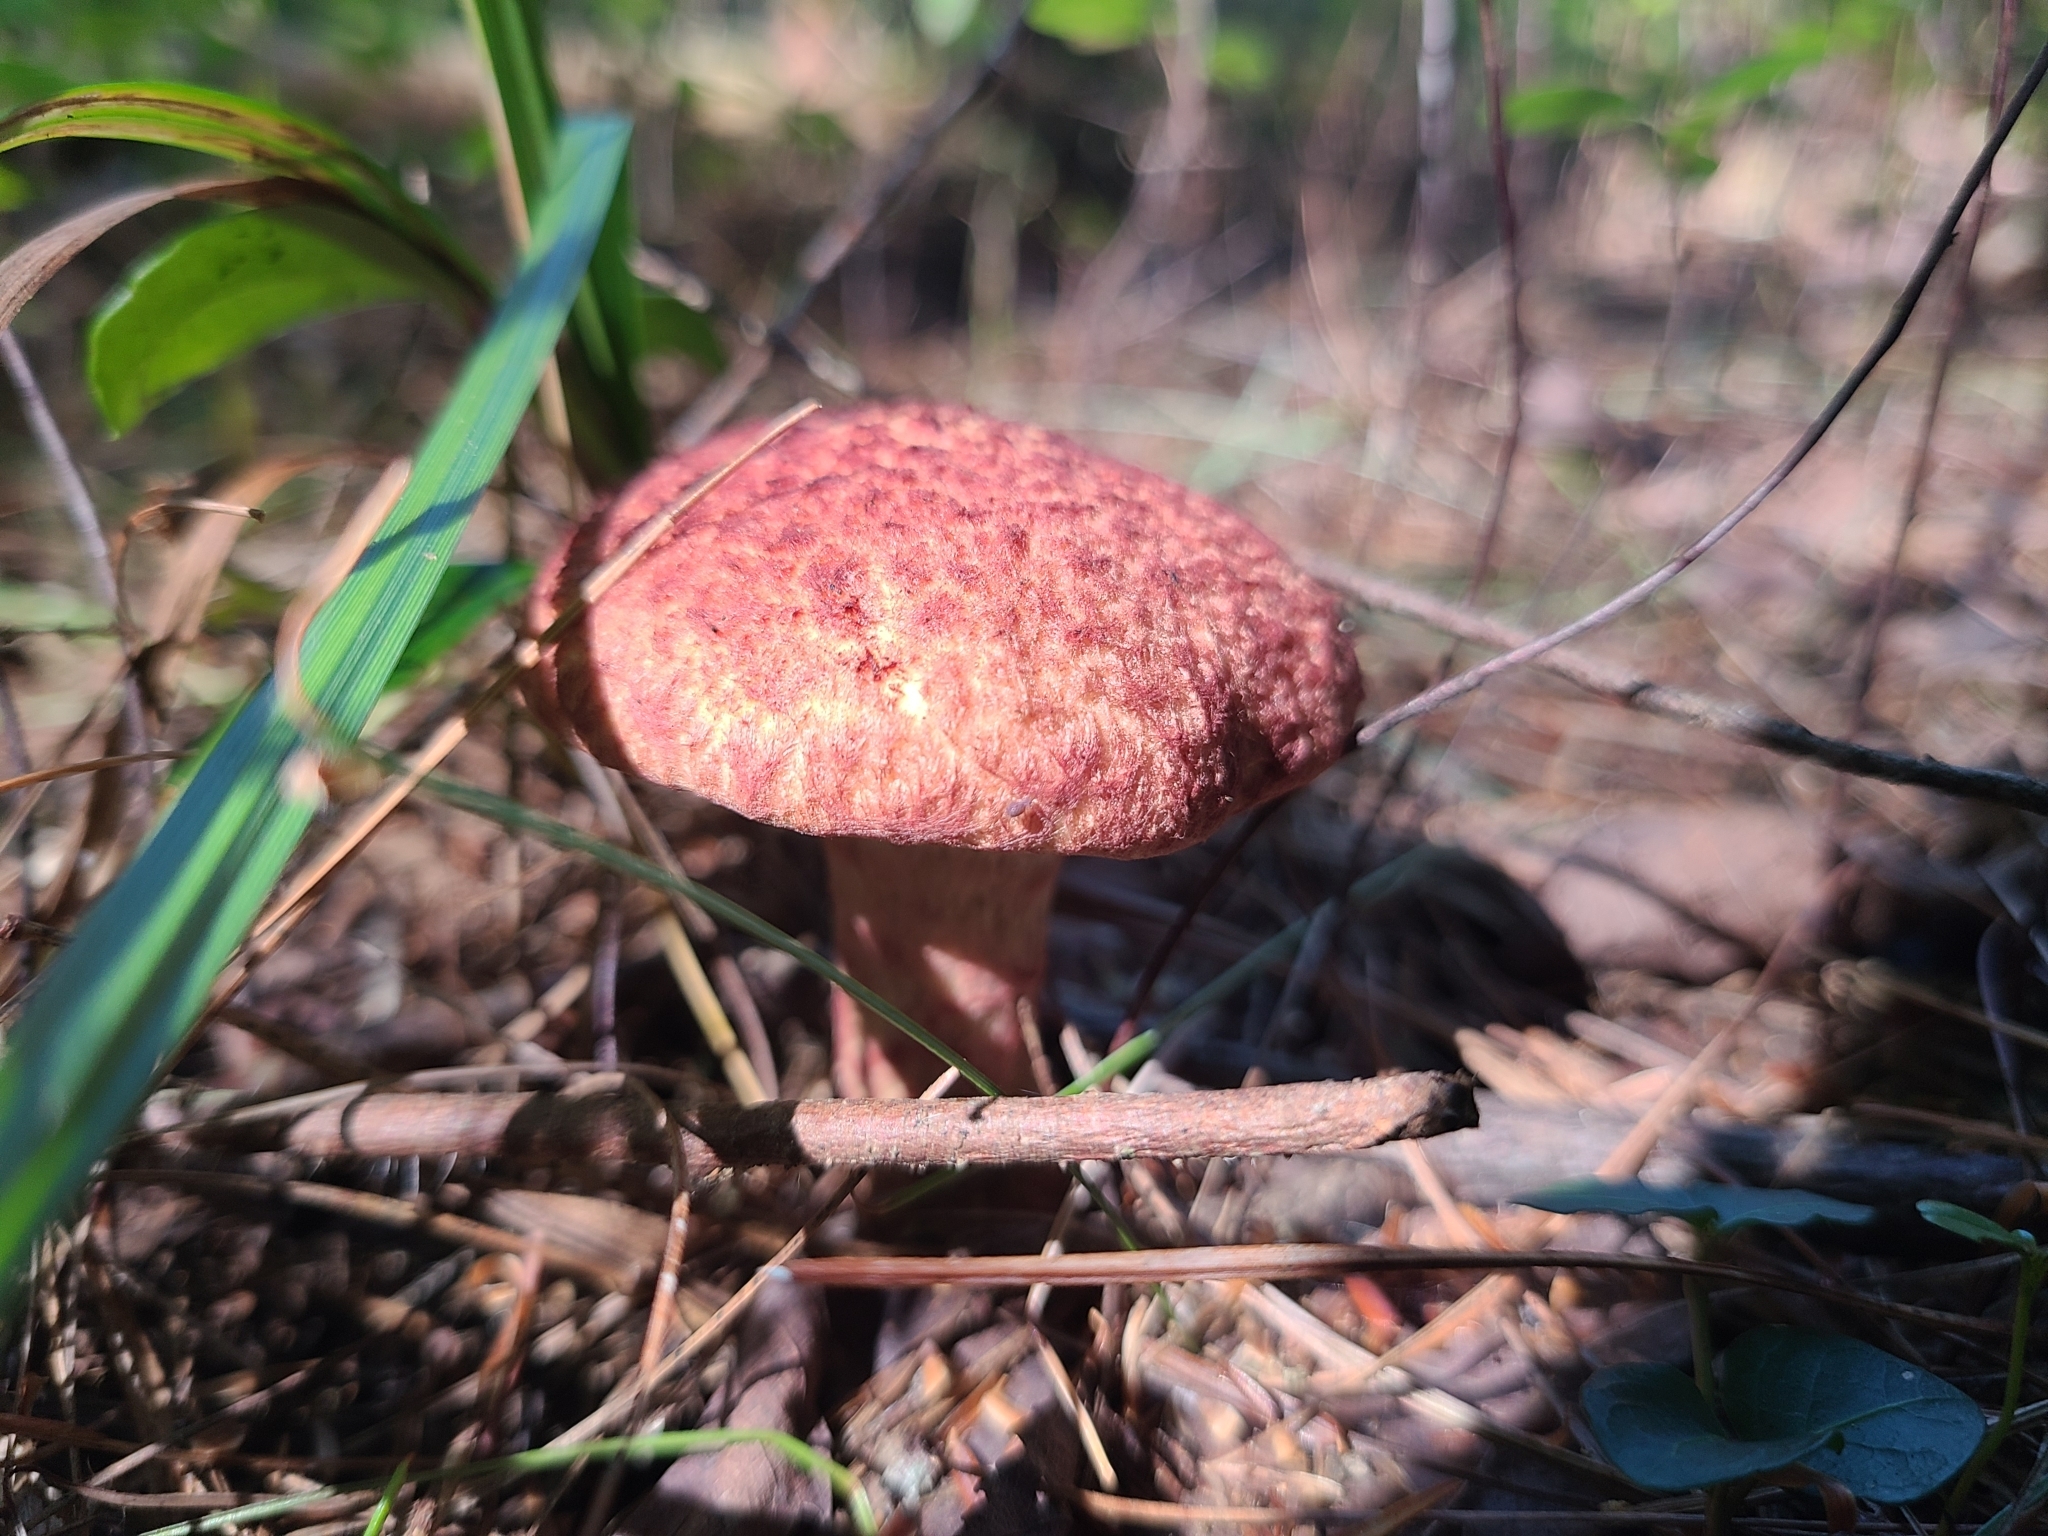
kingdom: Fungi
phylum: Basidiomycota
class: Agaricomycetes
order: Boletales
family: Suillaceae
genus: Suillus
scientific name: Suillus spraguei
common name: Painted suillus
